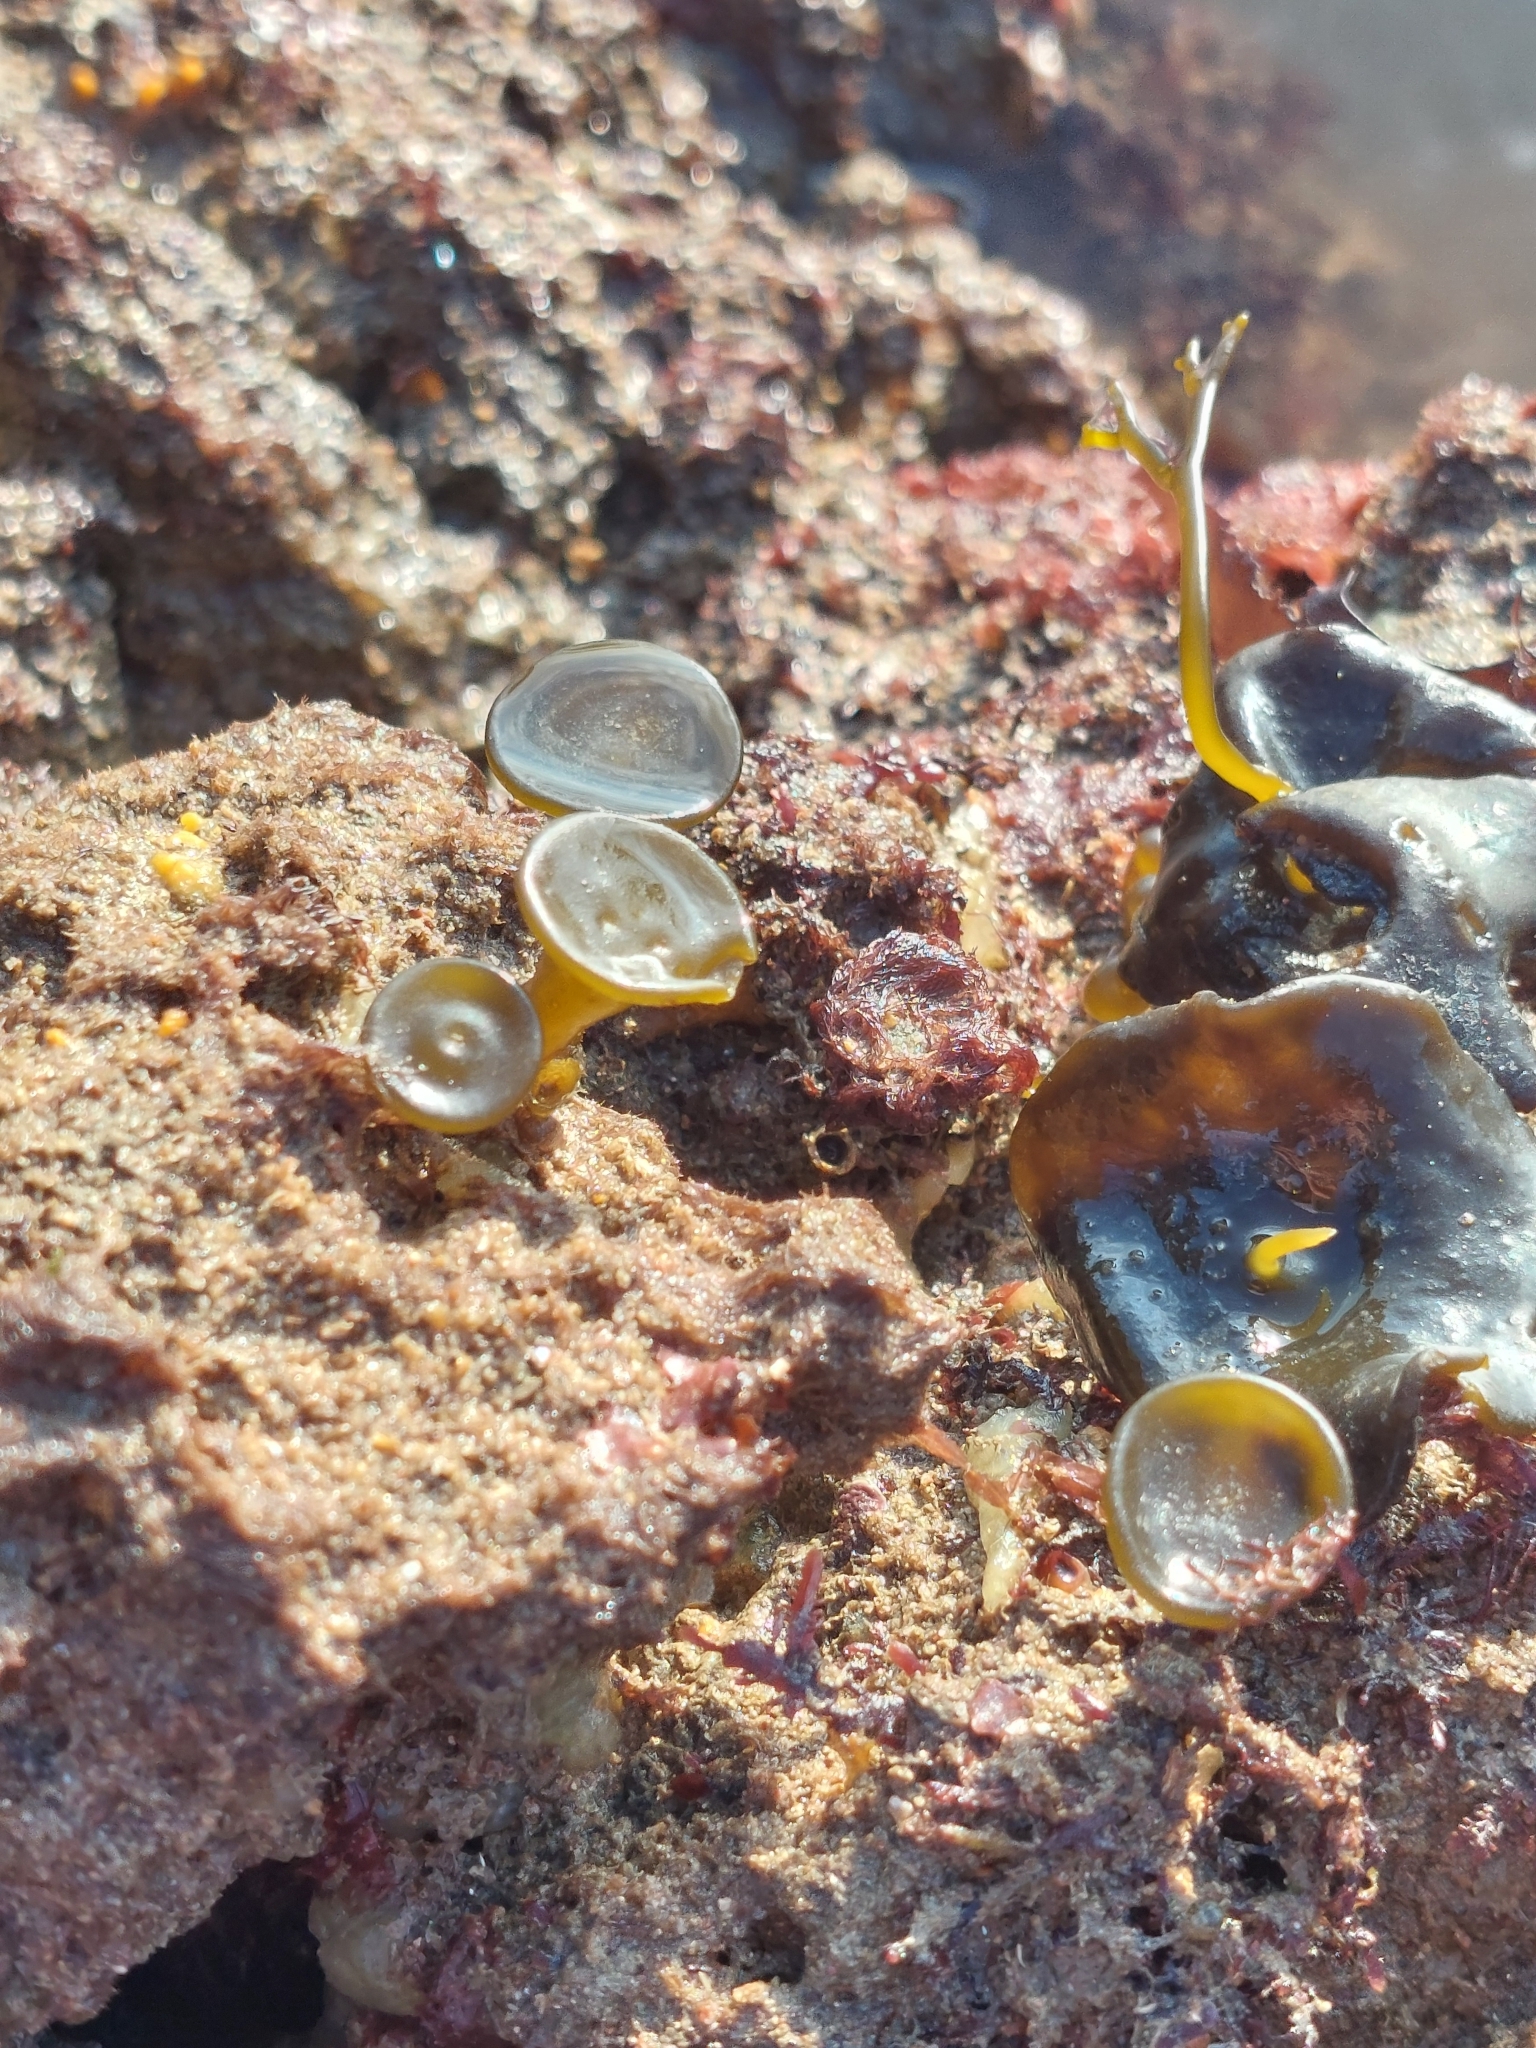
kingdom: Chromista
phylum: Ochrophyta
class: Phaeophyceae
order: Fucales
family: Himanthaliaceae
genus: Himanthalia
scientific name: Himanthalia elongata
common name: Sea-thong
